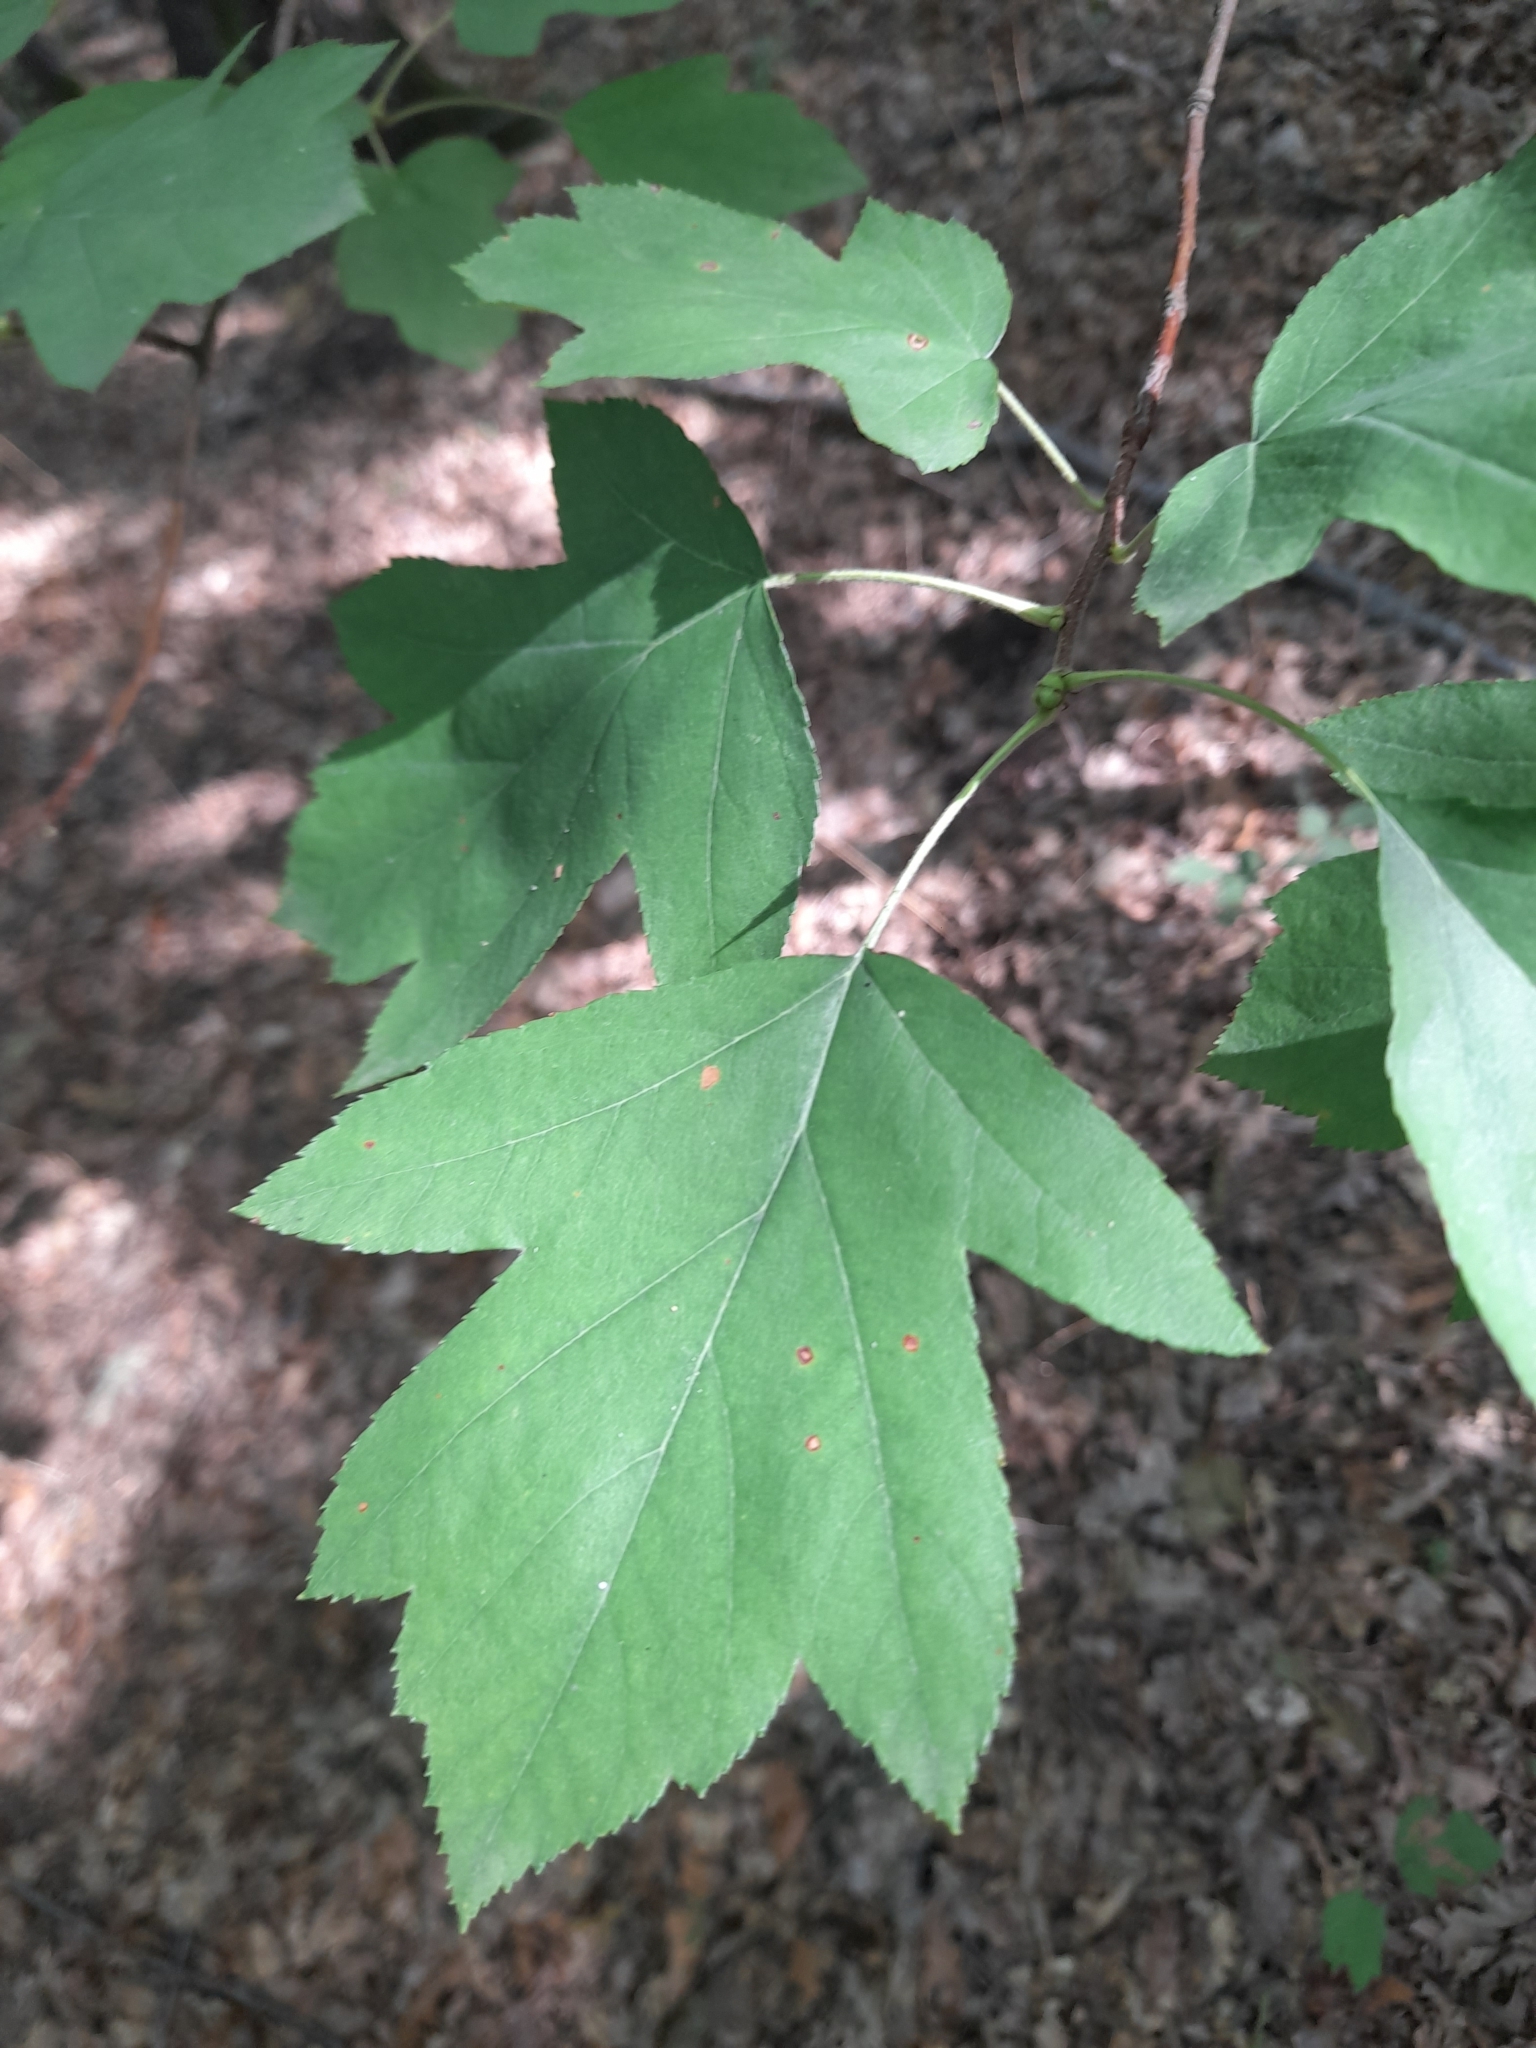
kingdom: Plantae
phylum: Tracheophyta
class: Magnoliopsida
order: Rosales
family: Rosaceae
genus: Torminalis
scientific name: Torminalis glaberrima
